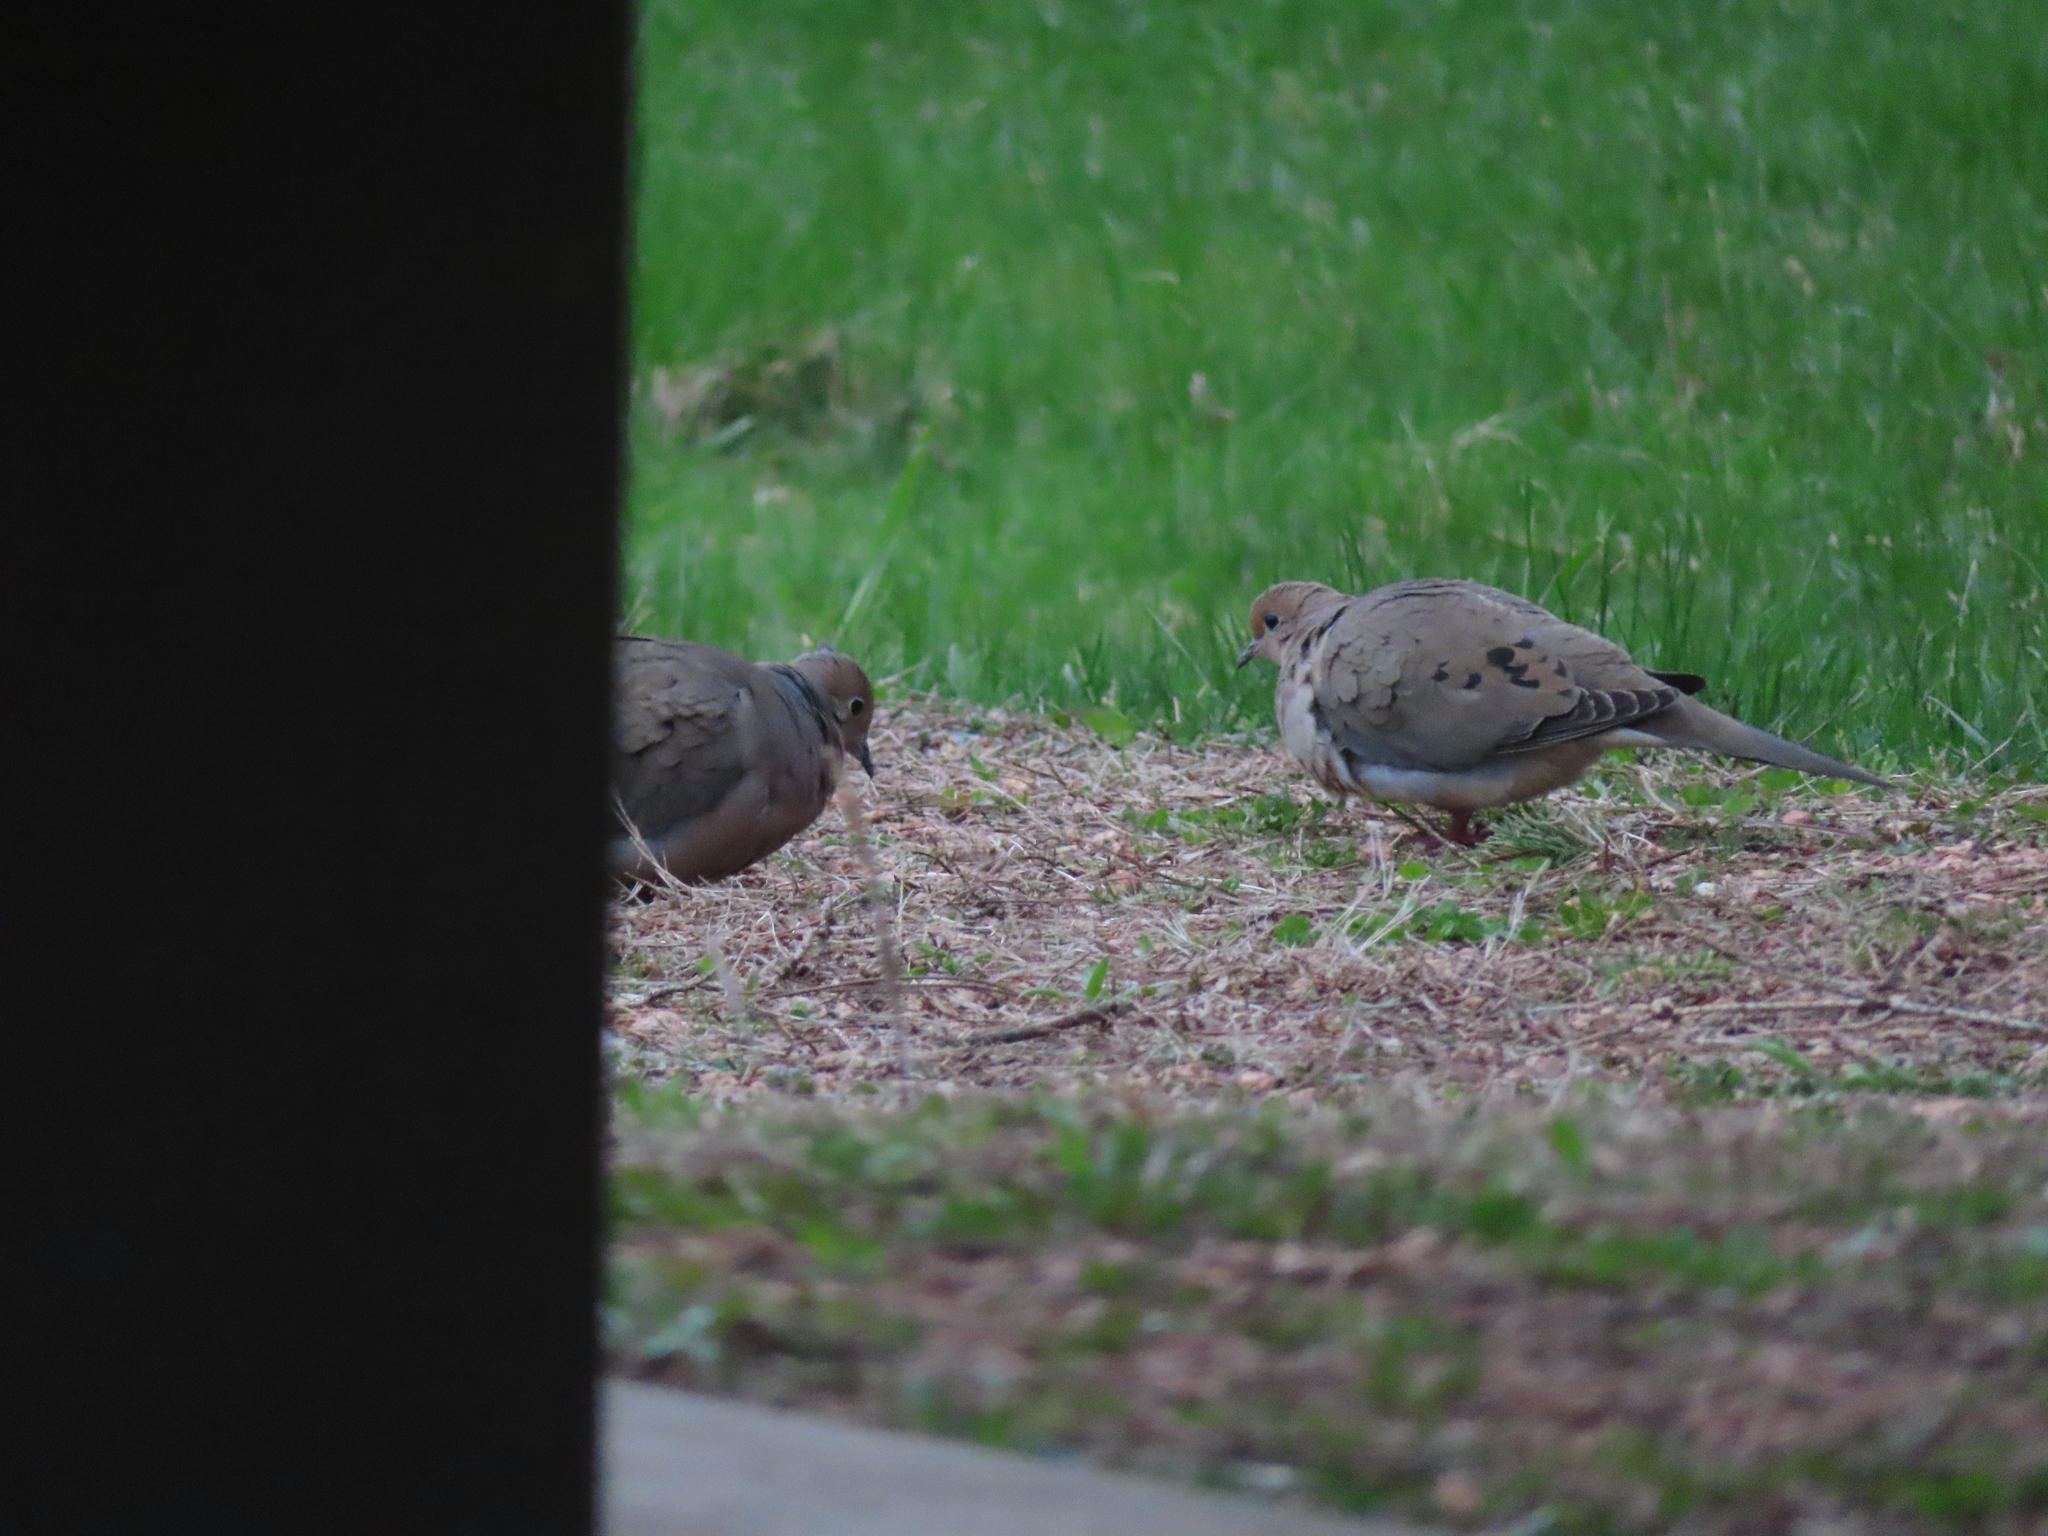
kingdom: Animalia
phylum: Chordata
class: Aves
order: Columbiformes
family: Columbidae
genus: Zenaida
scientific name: Zenaida macroura
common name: Mourning dove
